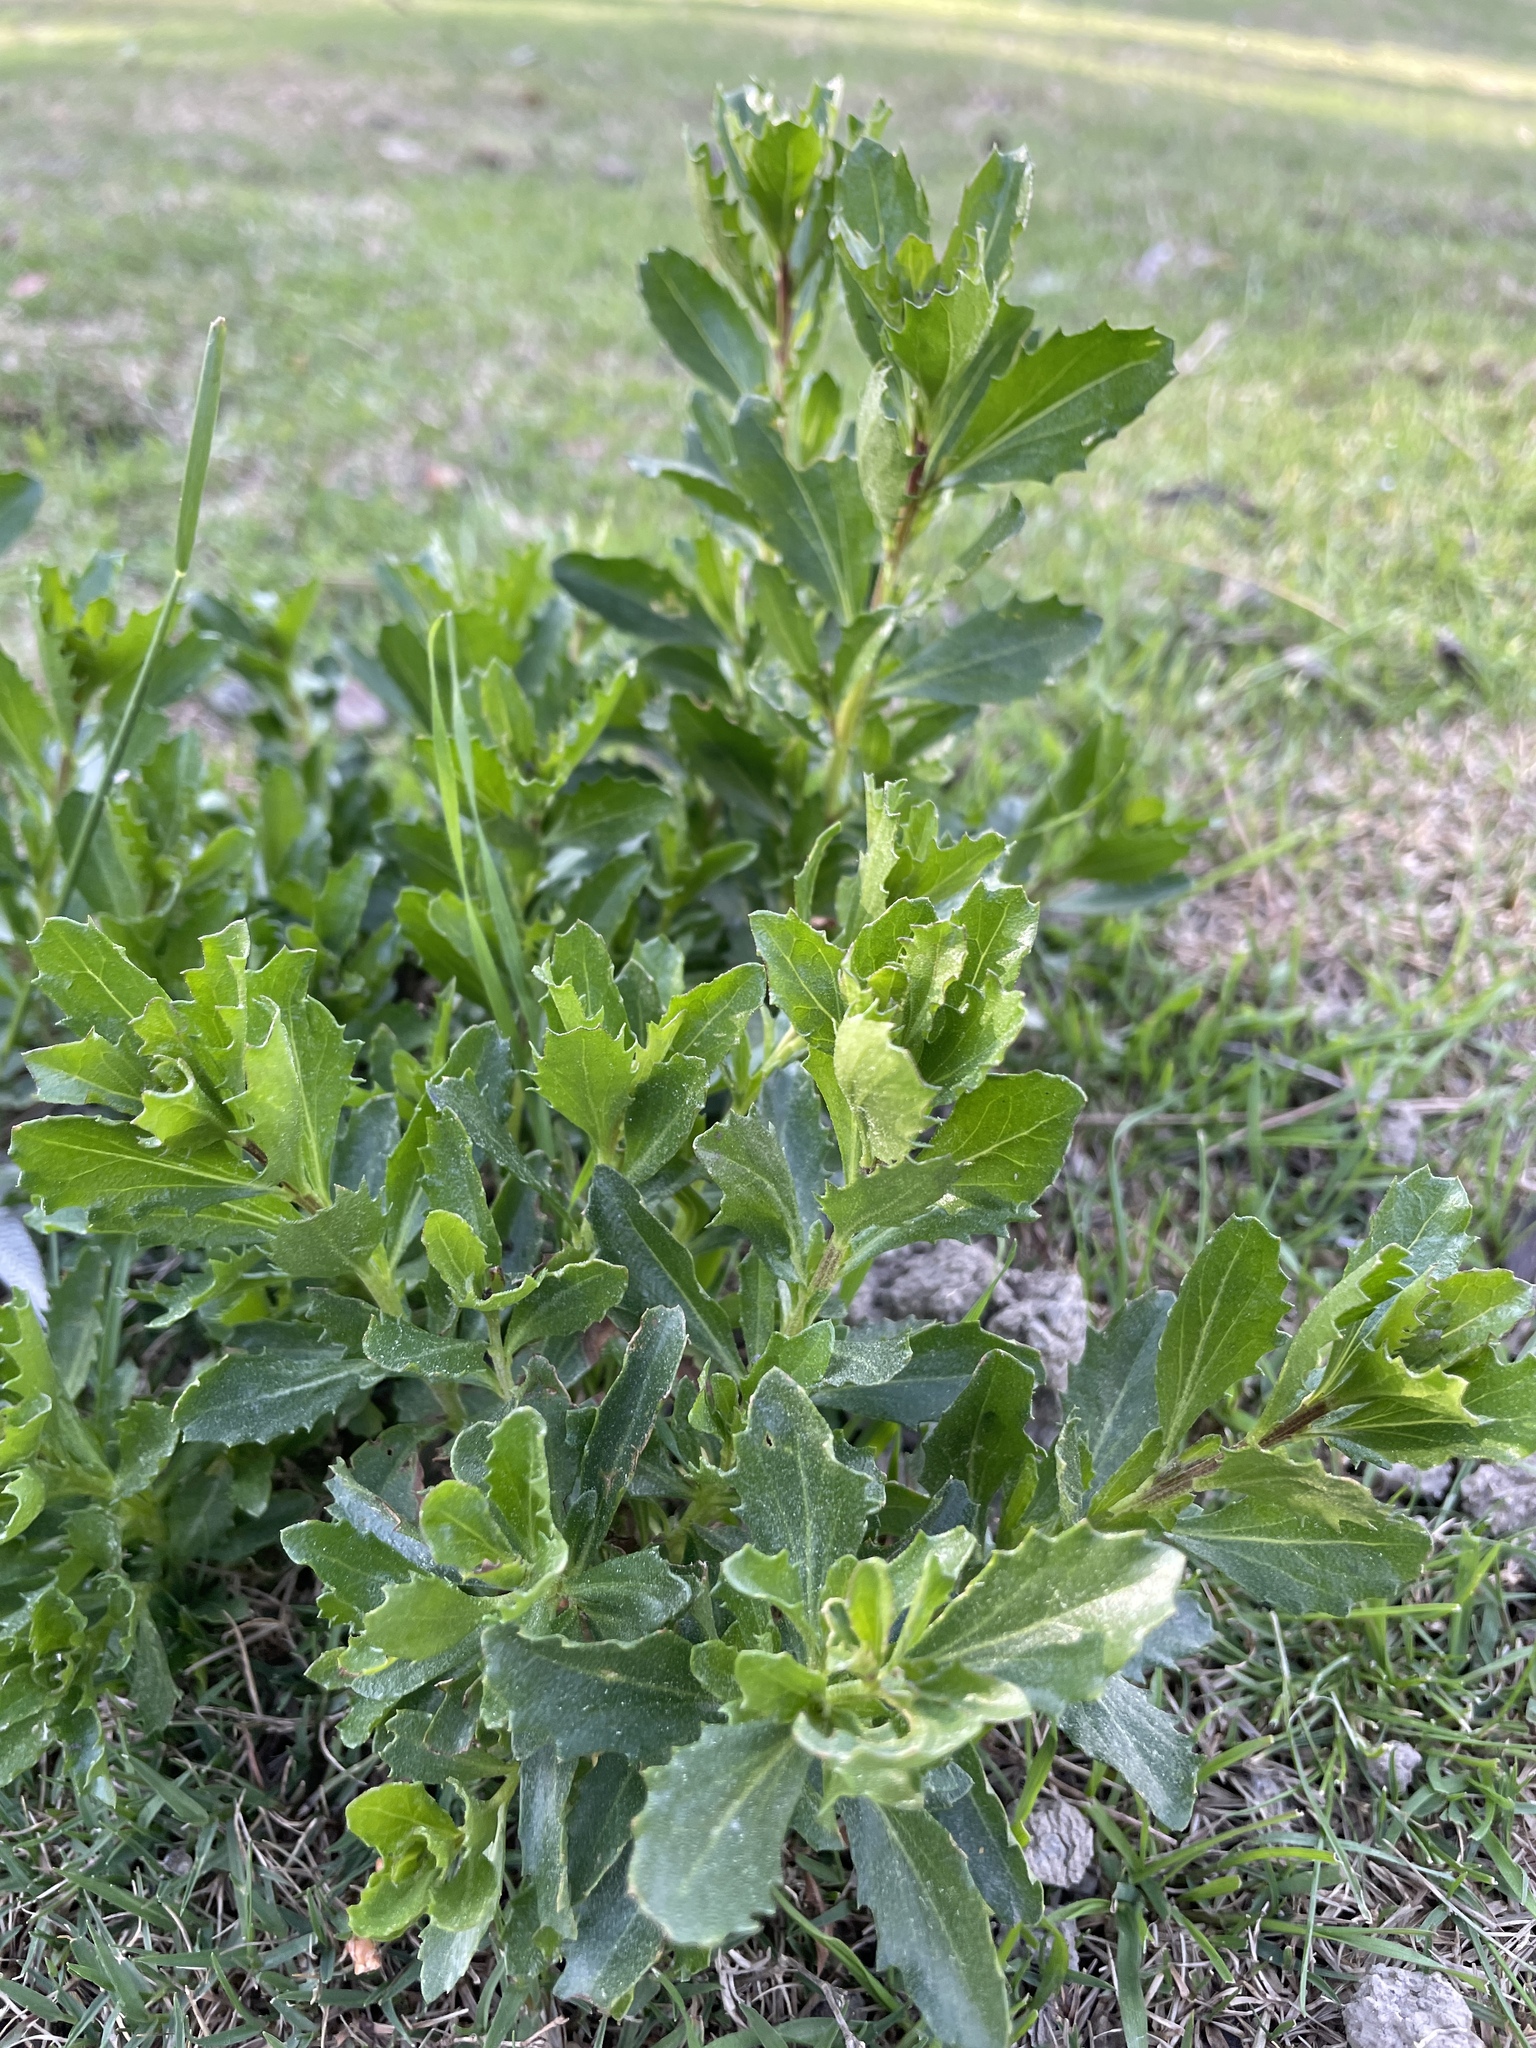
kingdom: Plantae
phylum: Tracheophyta
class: Magnoliopsida
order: Asterales
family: Asteraceae
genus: Baccharis
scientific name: Baccharis pilularis
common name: Coyotebrush
